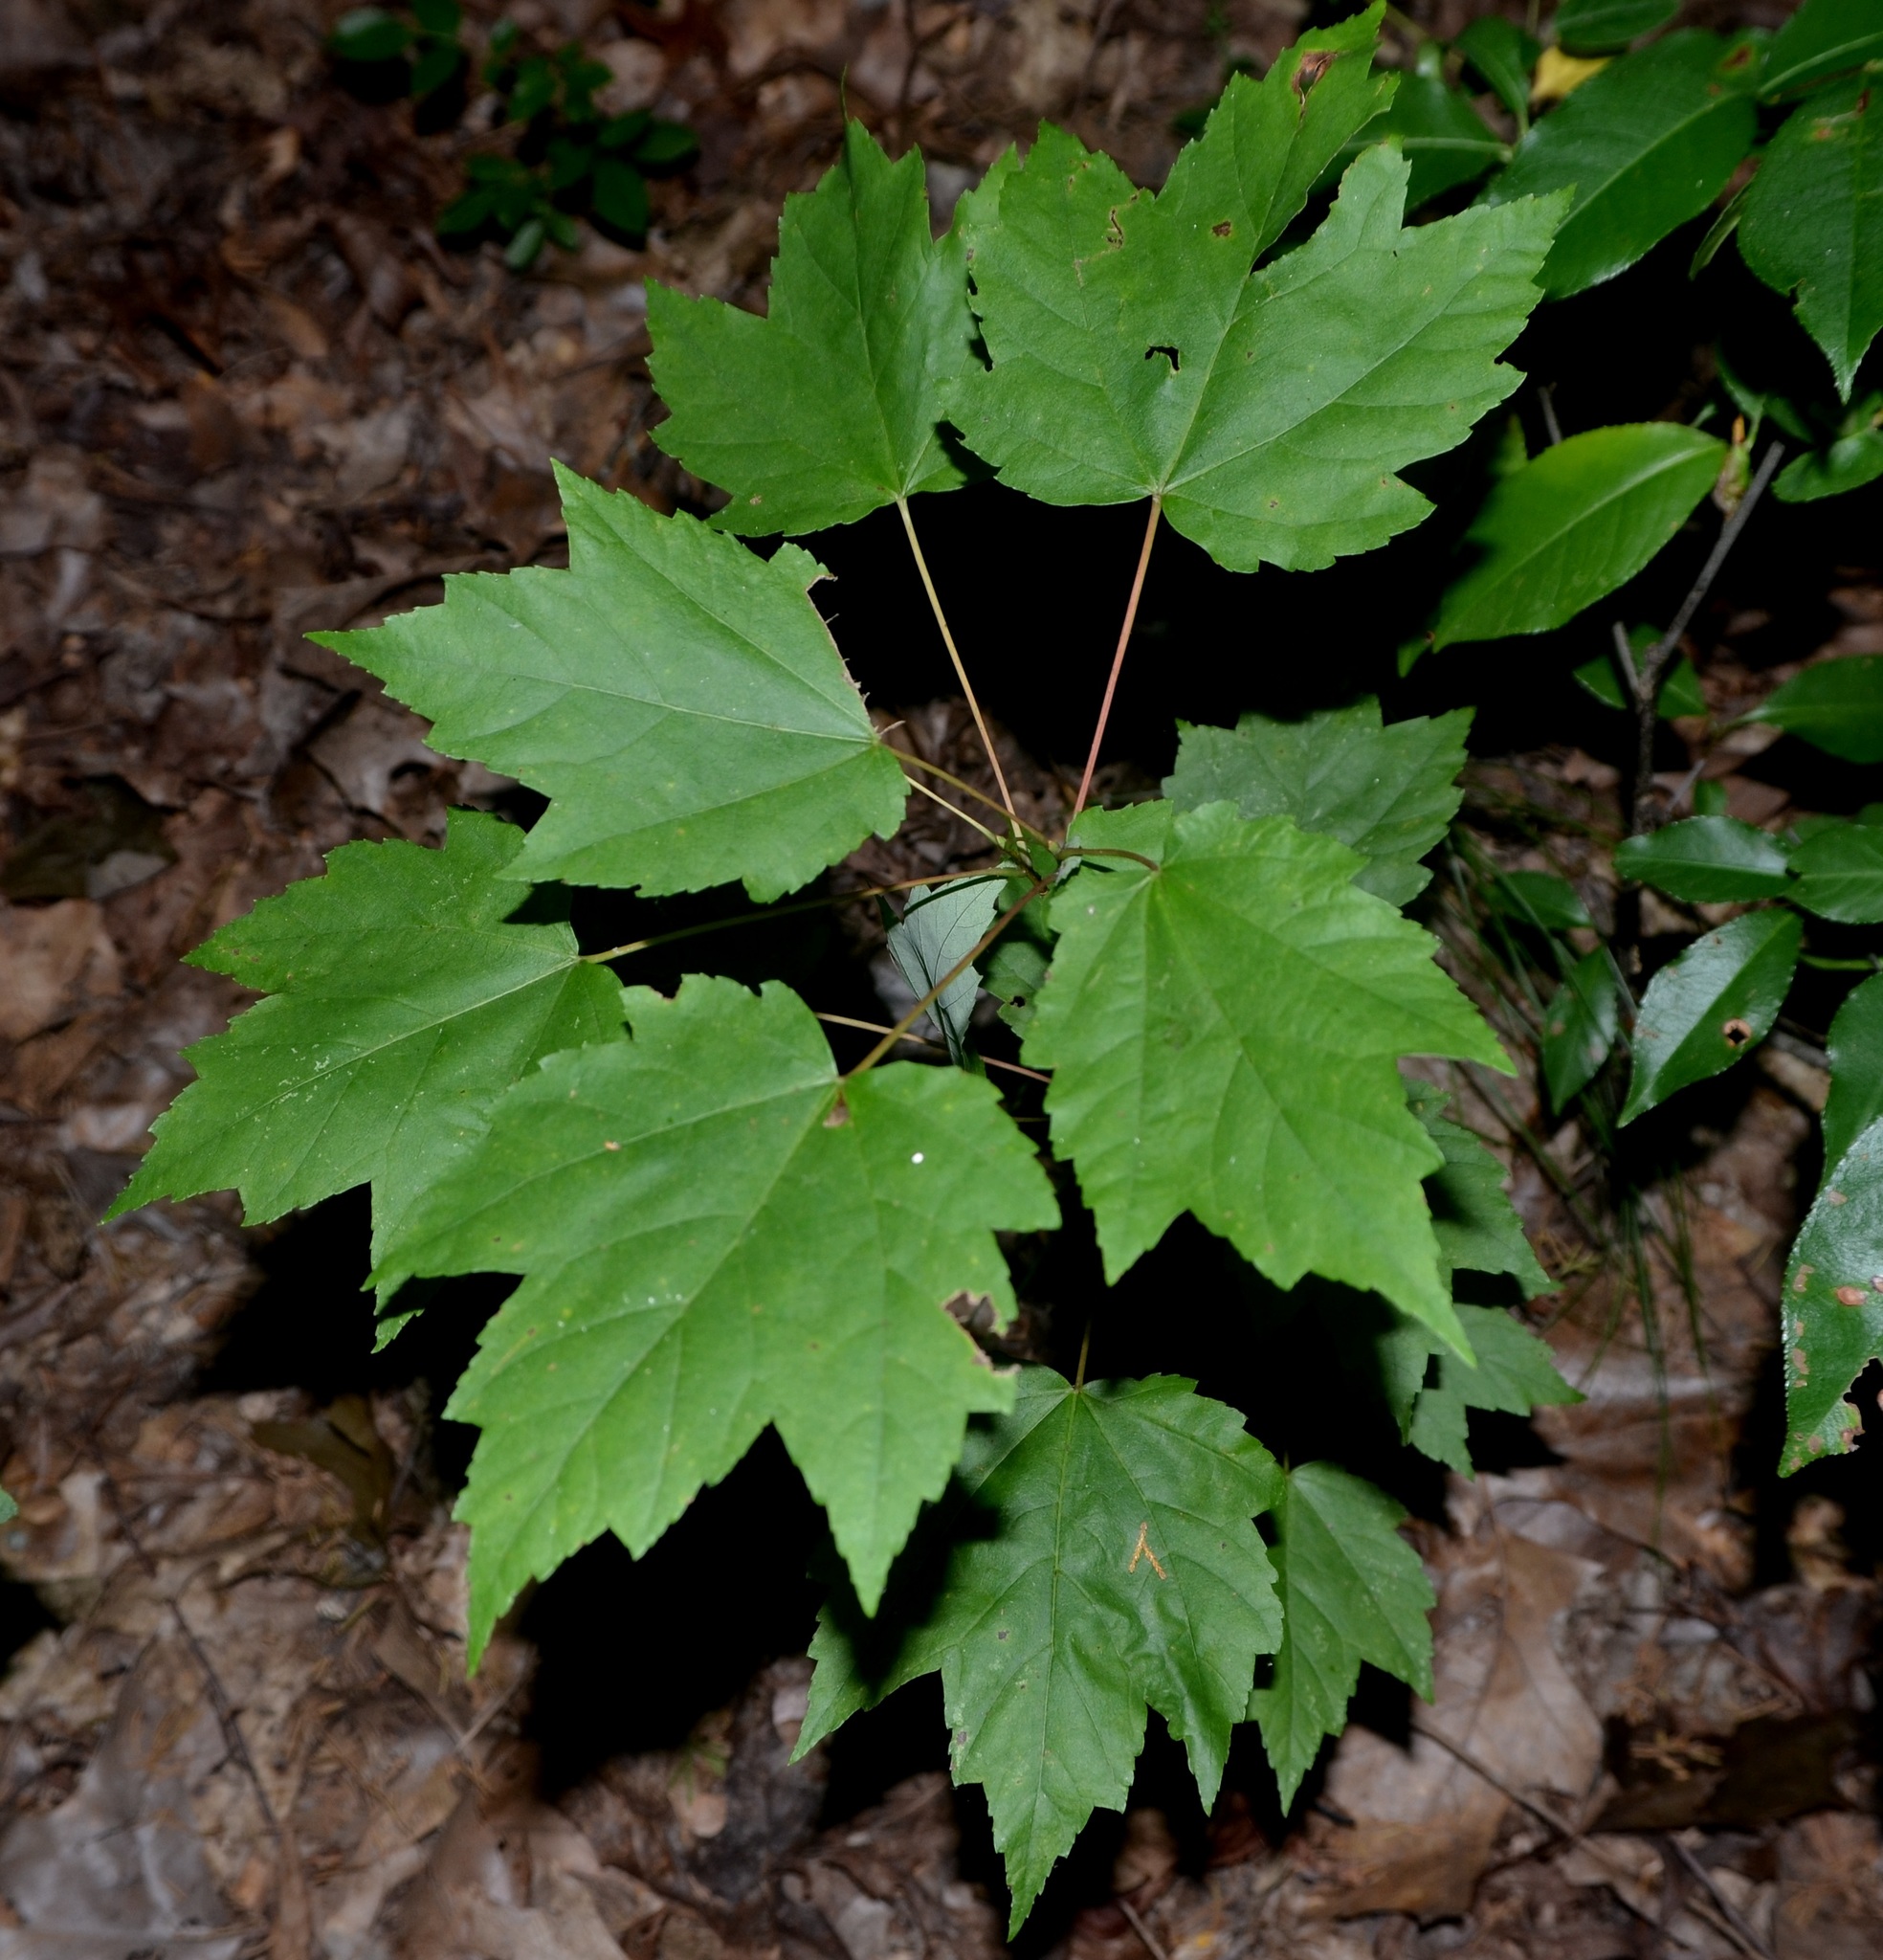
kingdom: Plantae
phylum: Tracheophyta
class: Magnoliopsida
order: Sapindales
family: Sapindaceae
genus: Acer
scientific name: Acer rubrum
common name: Red maple
